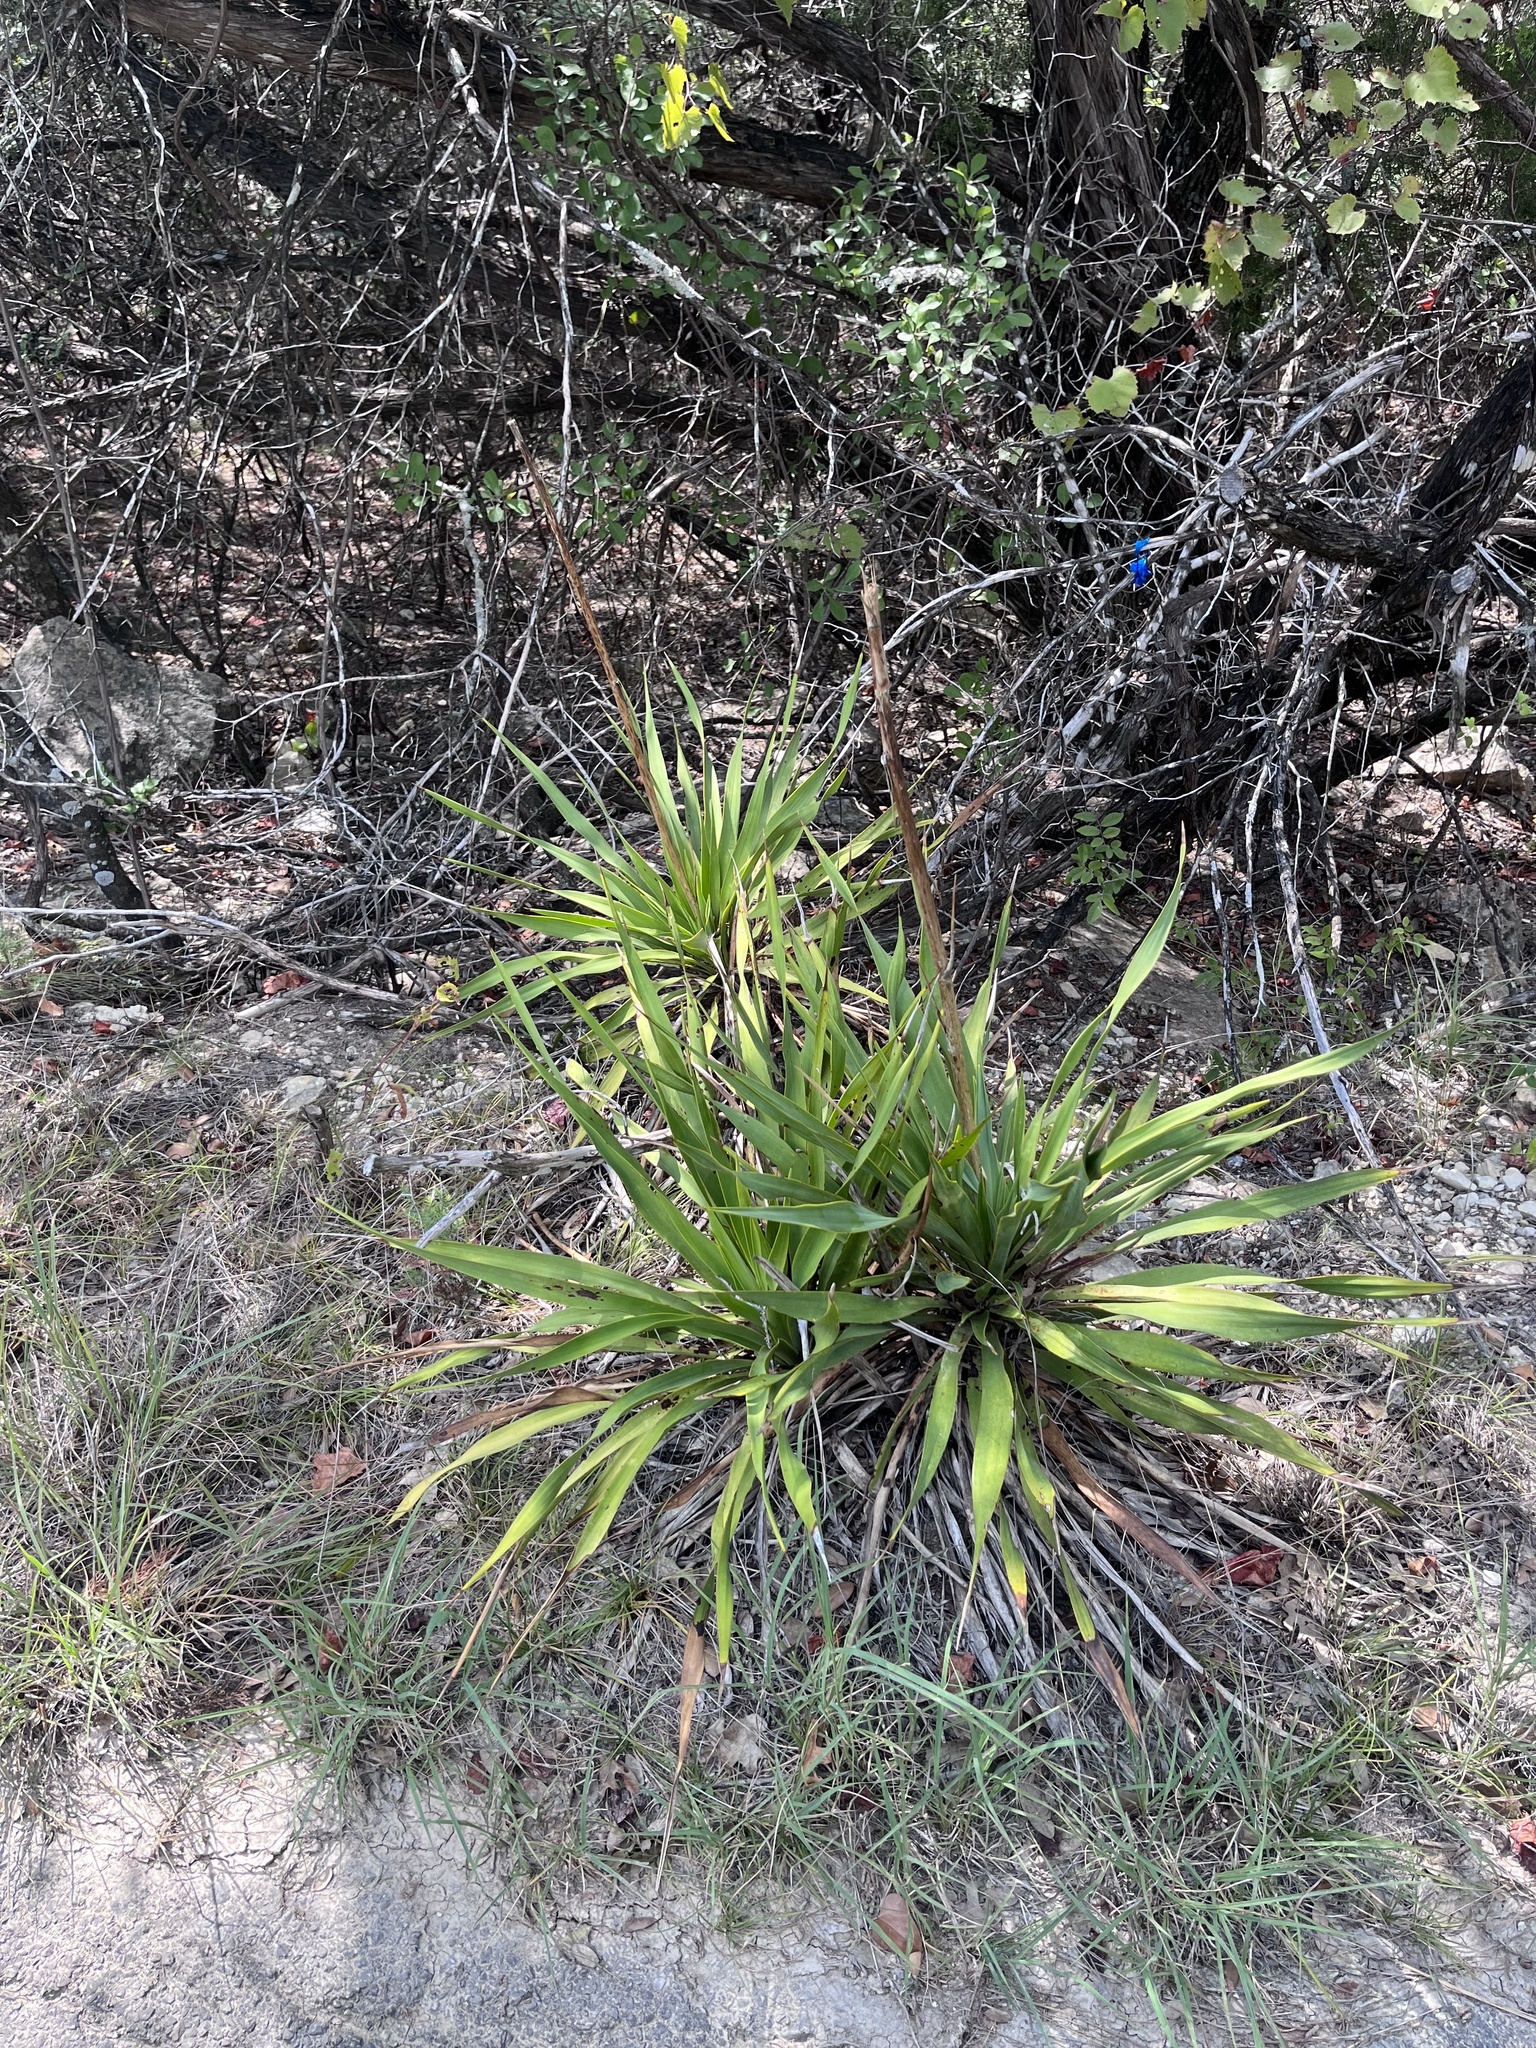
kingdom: Plantae
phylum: Tracheophyta
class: Liliopsida
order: Asparagales
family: Asparagaceae
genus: Yucca
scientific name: Yucca rupicola
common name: Twisted-leaf spanish-dagger
